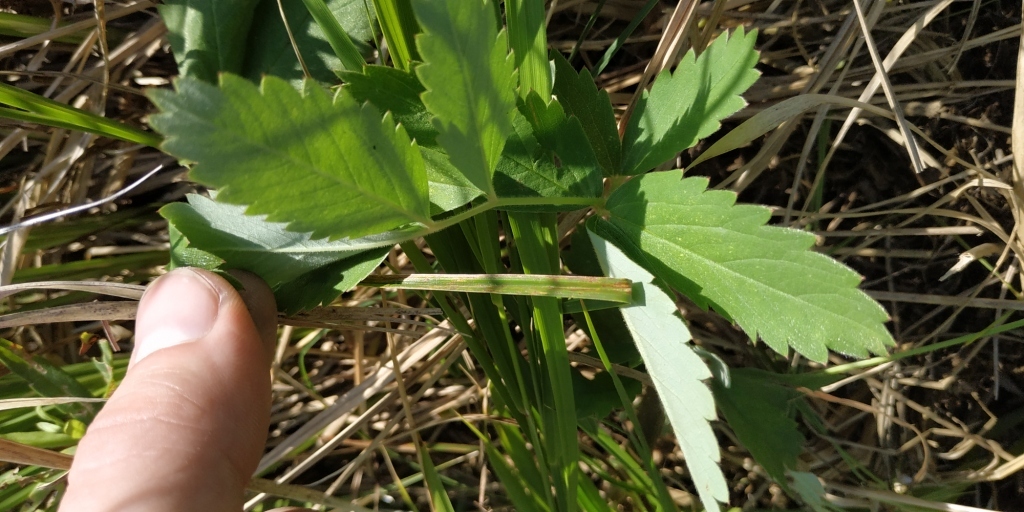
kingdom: Plantae
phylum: Tracheophyta
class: Magnoliopsida
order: Rosales
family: Rosaceae
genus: Comarum
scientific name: Comarum palustre
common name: Marsh cinquefoil
